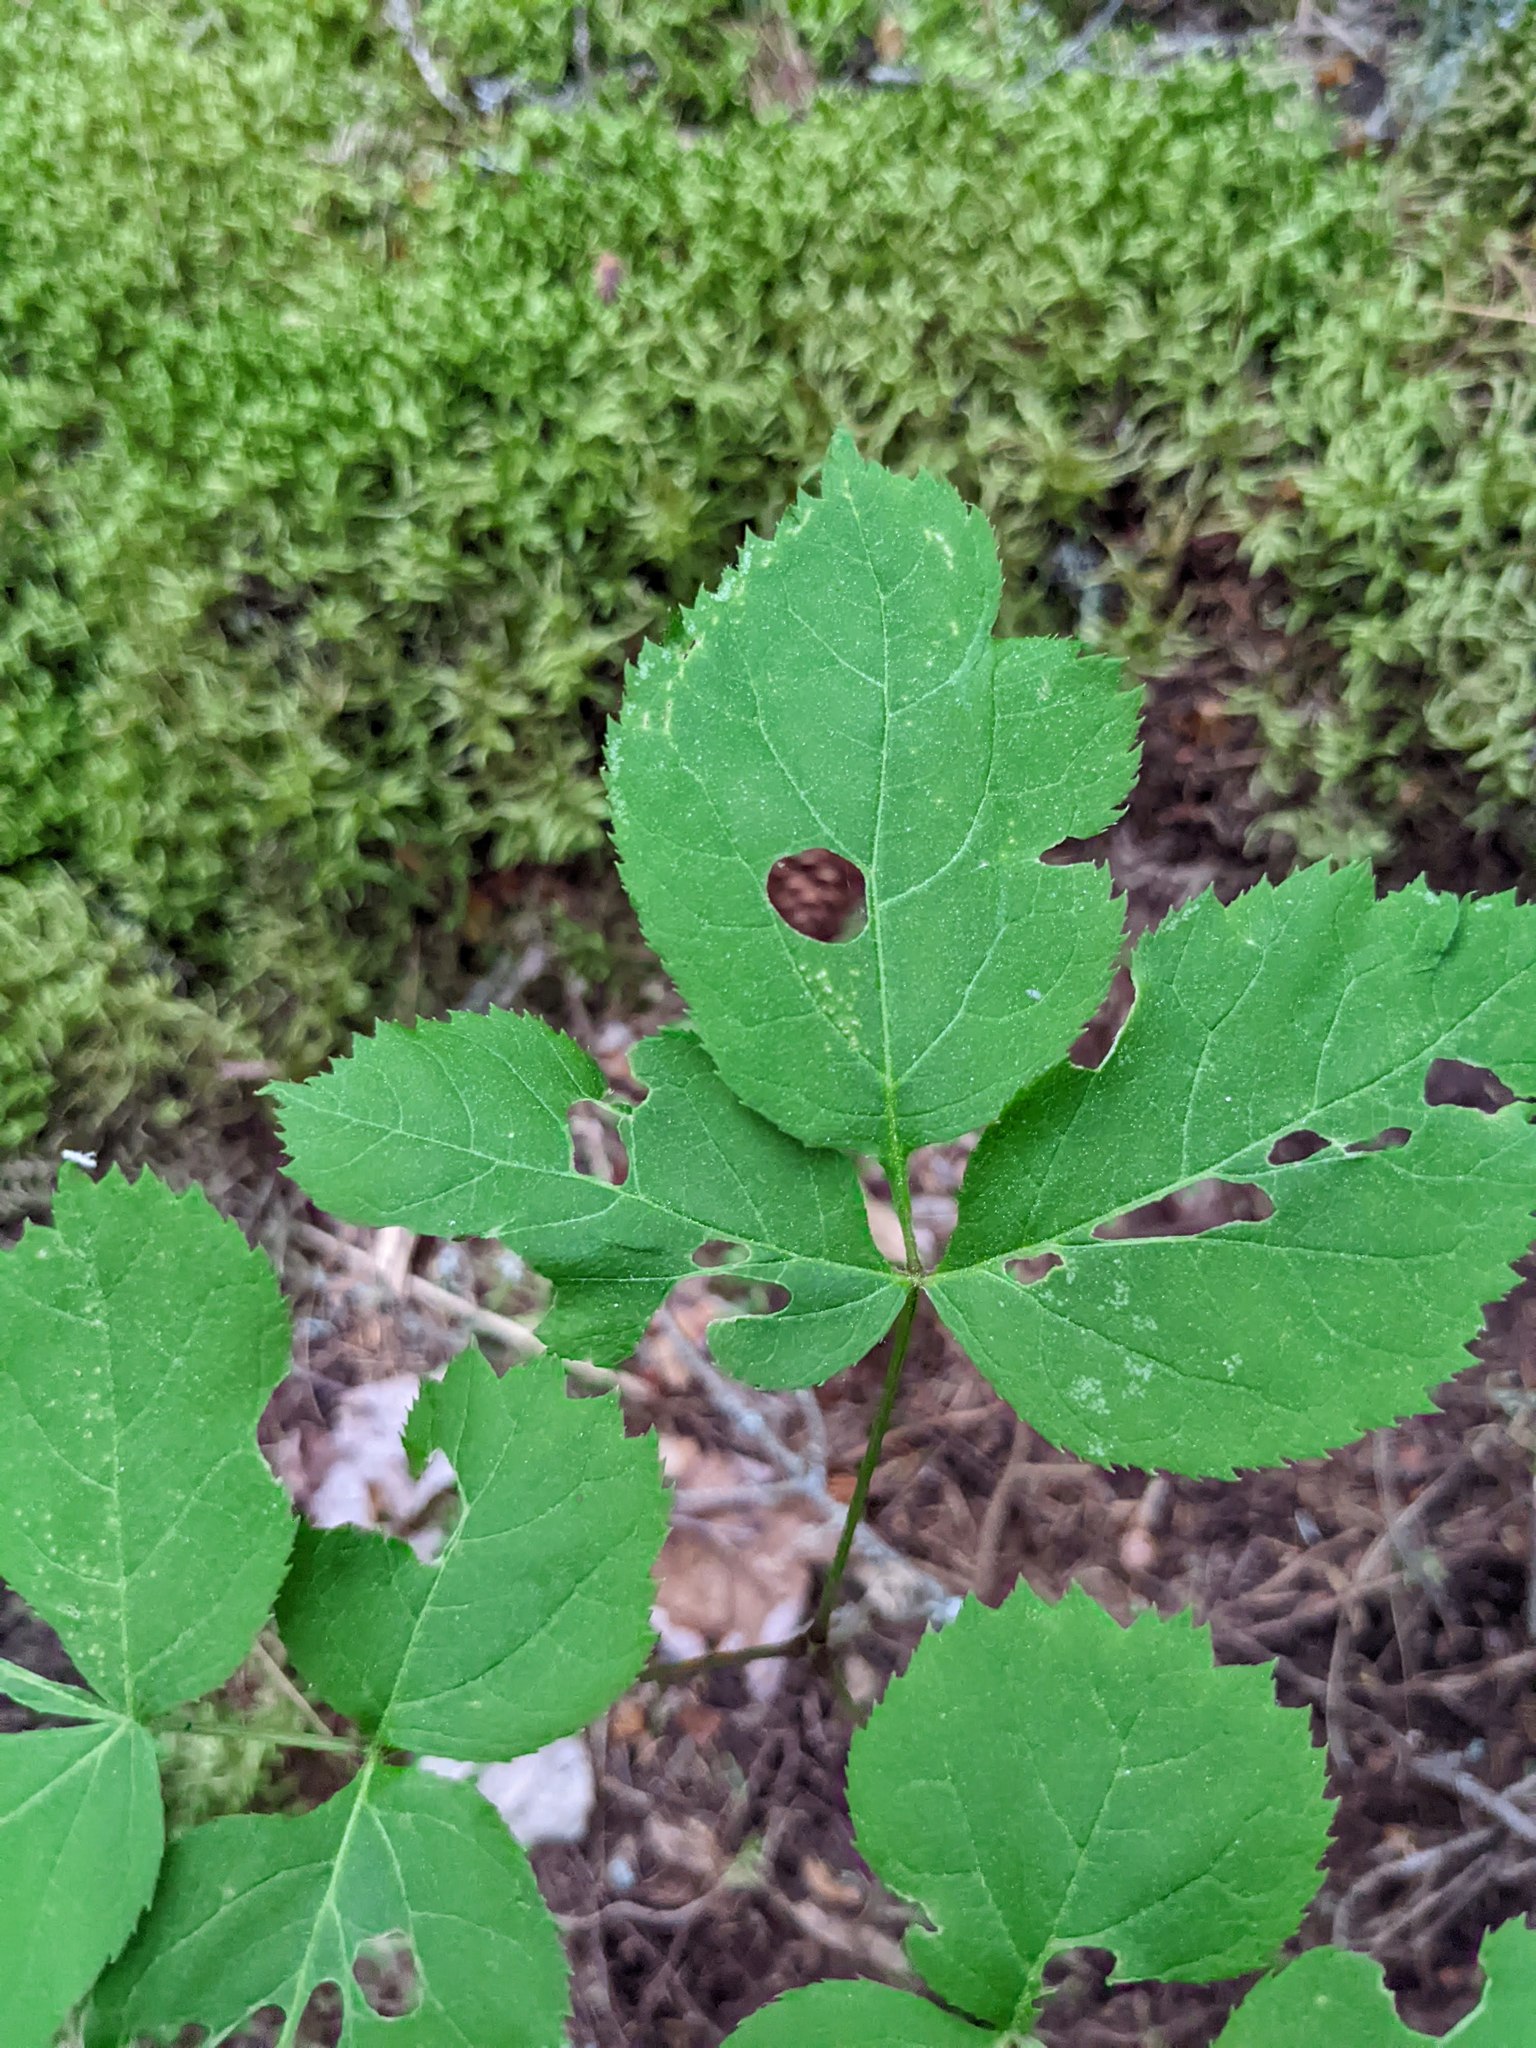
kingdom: Plantae
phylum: Tracheophyta
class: Magnoliopsida
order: Apiales
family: Araliaceae
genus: Aralia
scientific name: Aralia nudicaulis
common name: Wild sarsaparilla
